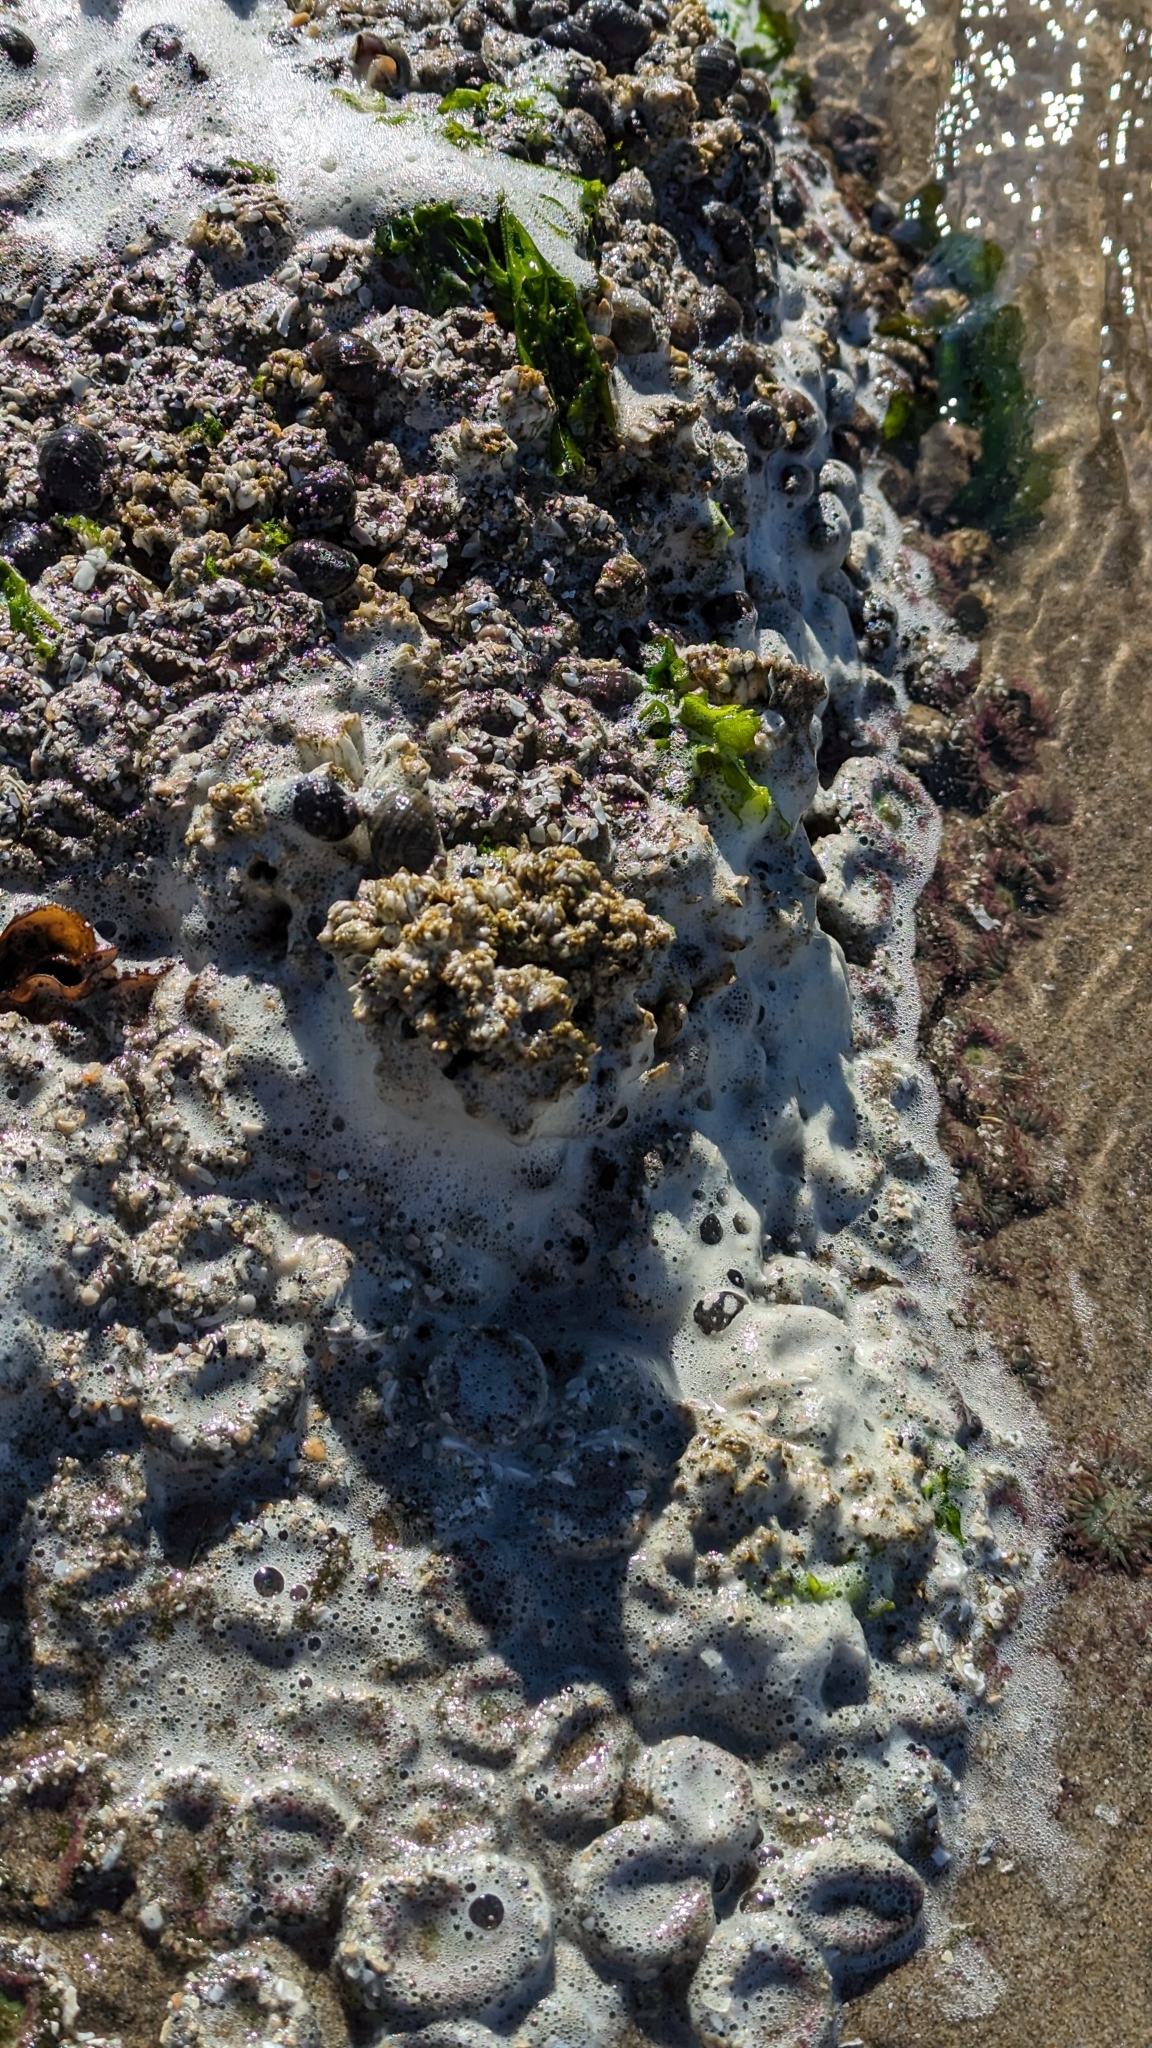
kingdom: Animalia
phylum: Cnidaria
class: Anthozoa
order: Actiniaria
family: Actiniidae
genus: Anthopleura
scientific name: Anthopleura elegantissima
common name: Clonal anemone
